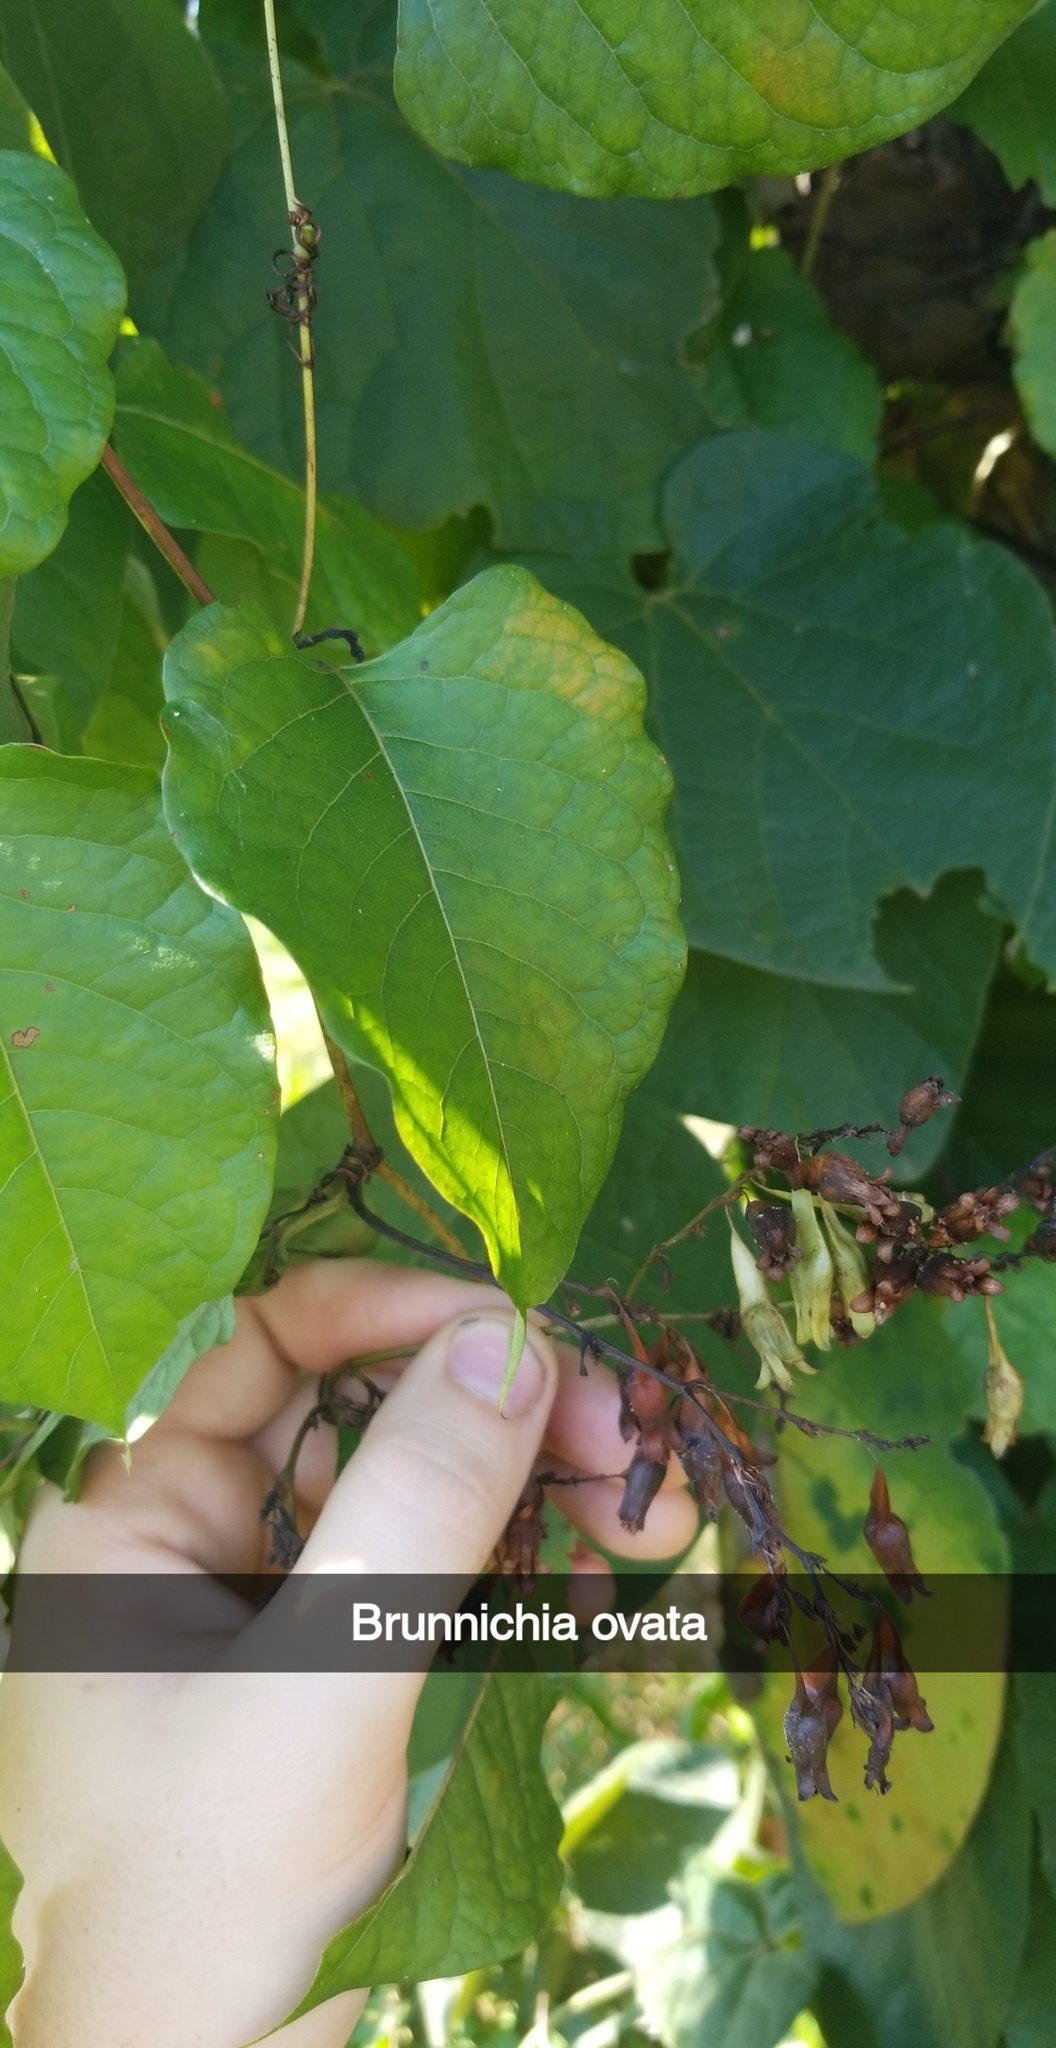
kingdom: Plantae
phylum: Tracheophyta
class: Magnoliopsida
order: Caryophyllales
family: Polygonaceae
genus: Brunnichia
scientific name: Brunnichia ovata
